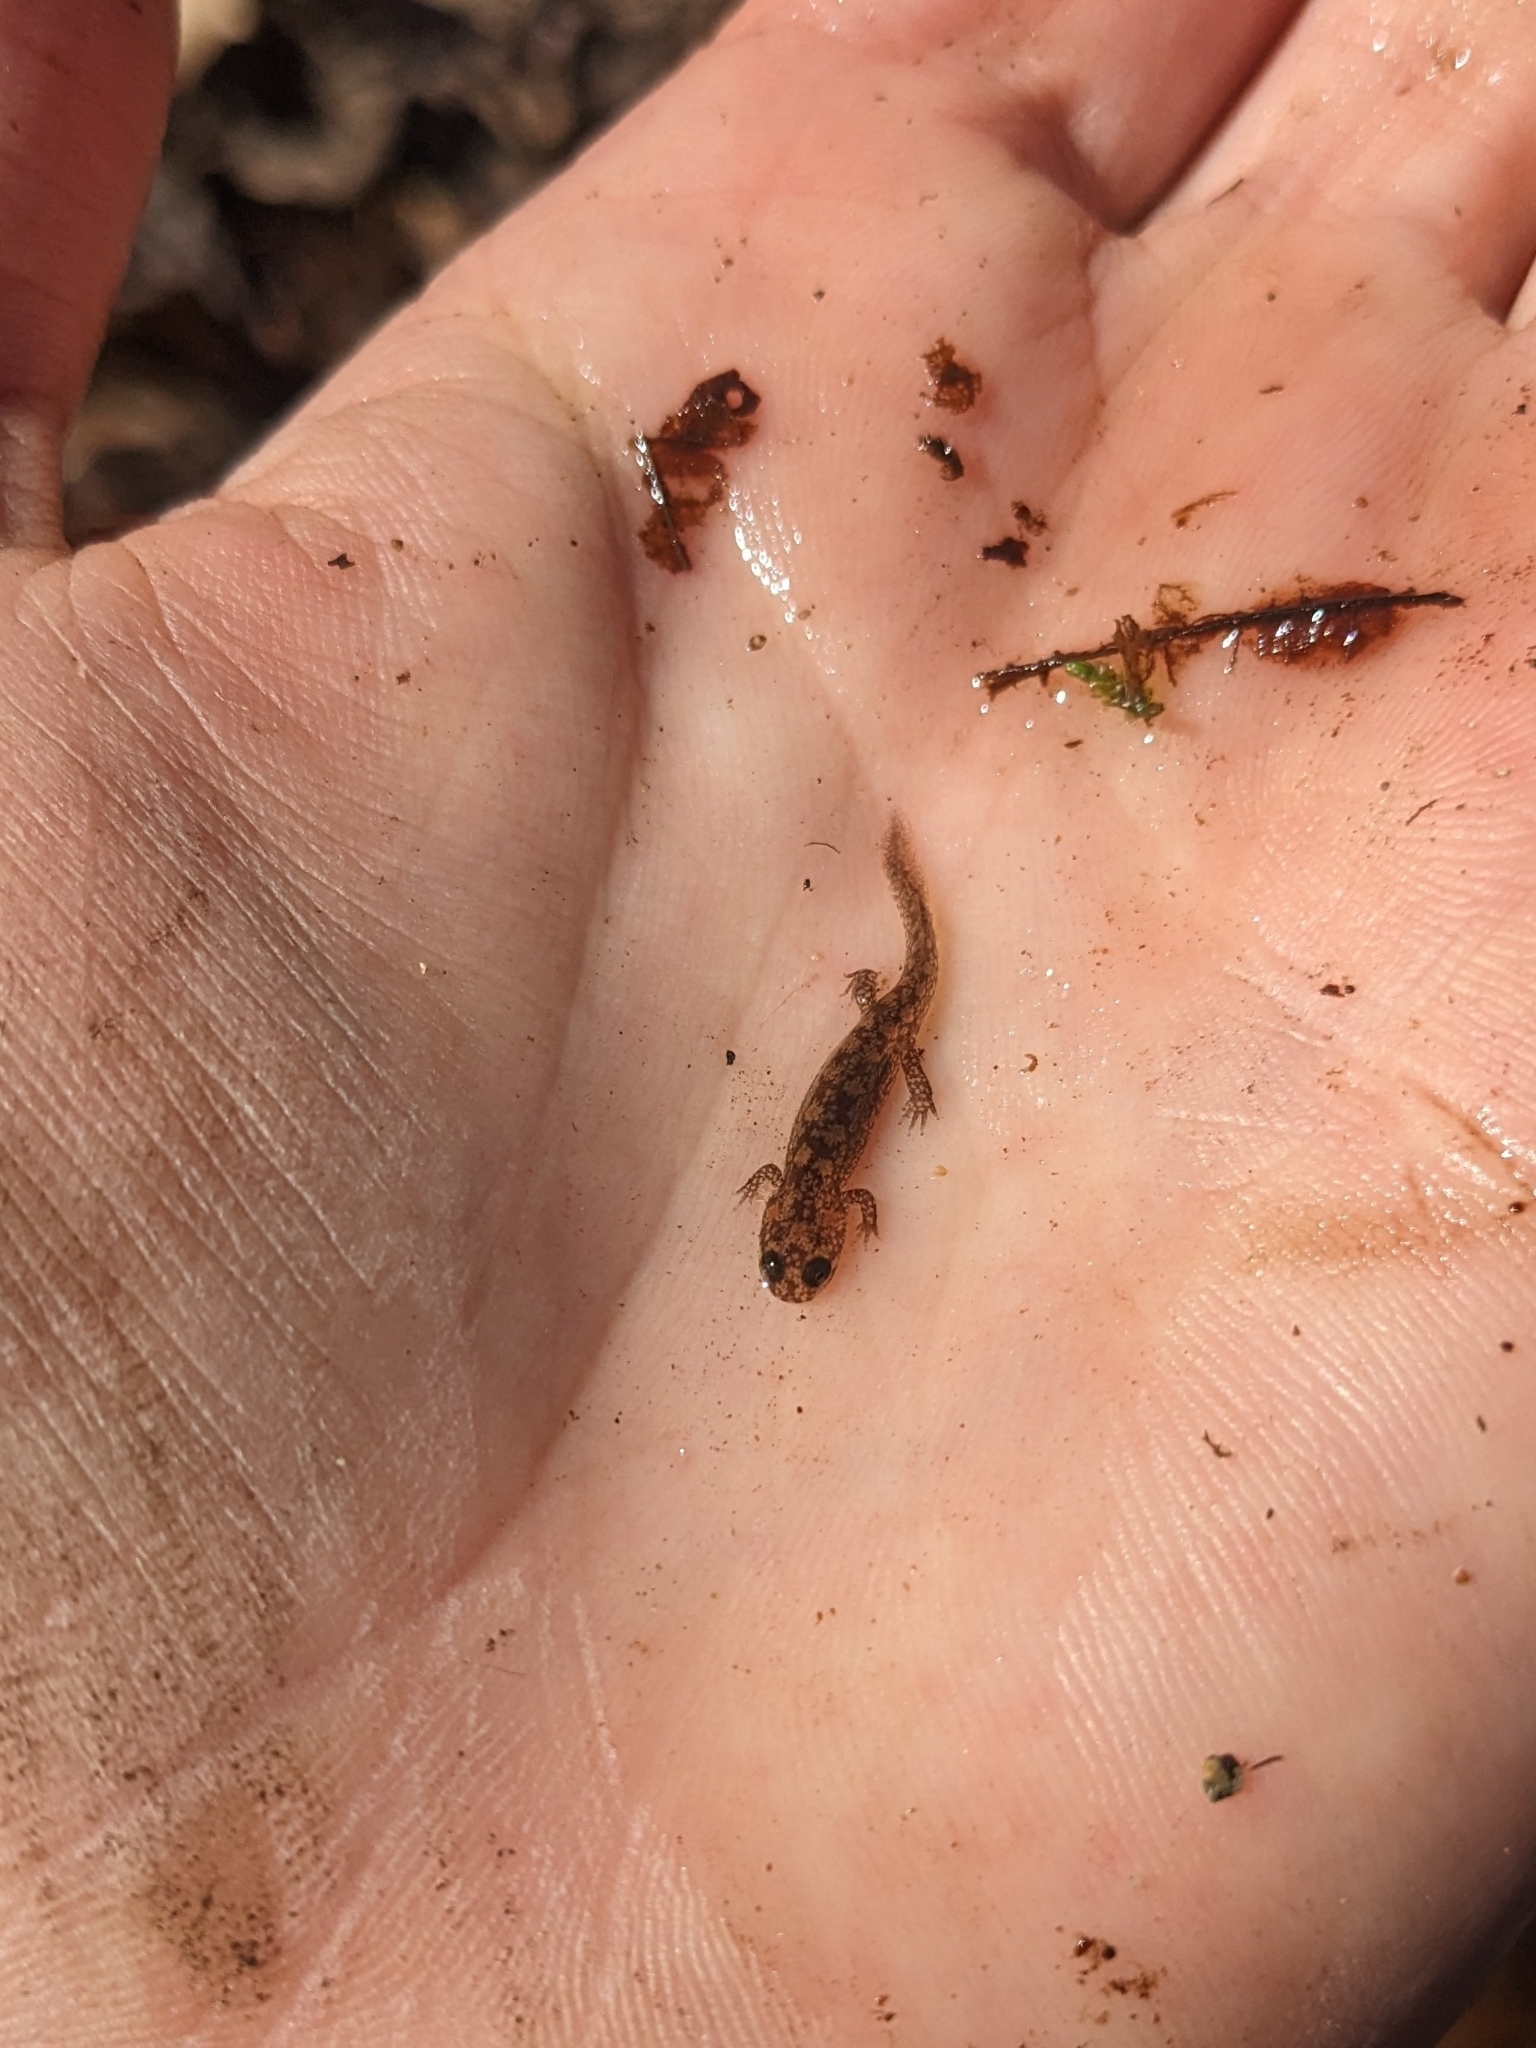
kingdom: Animalia
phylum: Chordata
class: Amphibia
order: Caudata
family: Plethodontidae
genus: Desmognathus
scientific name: Desmognathus
